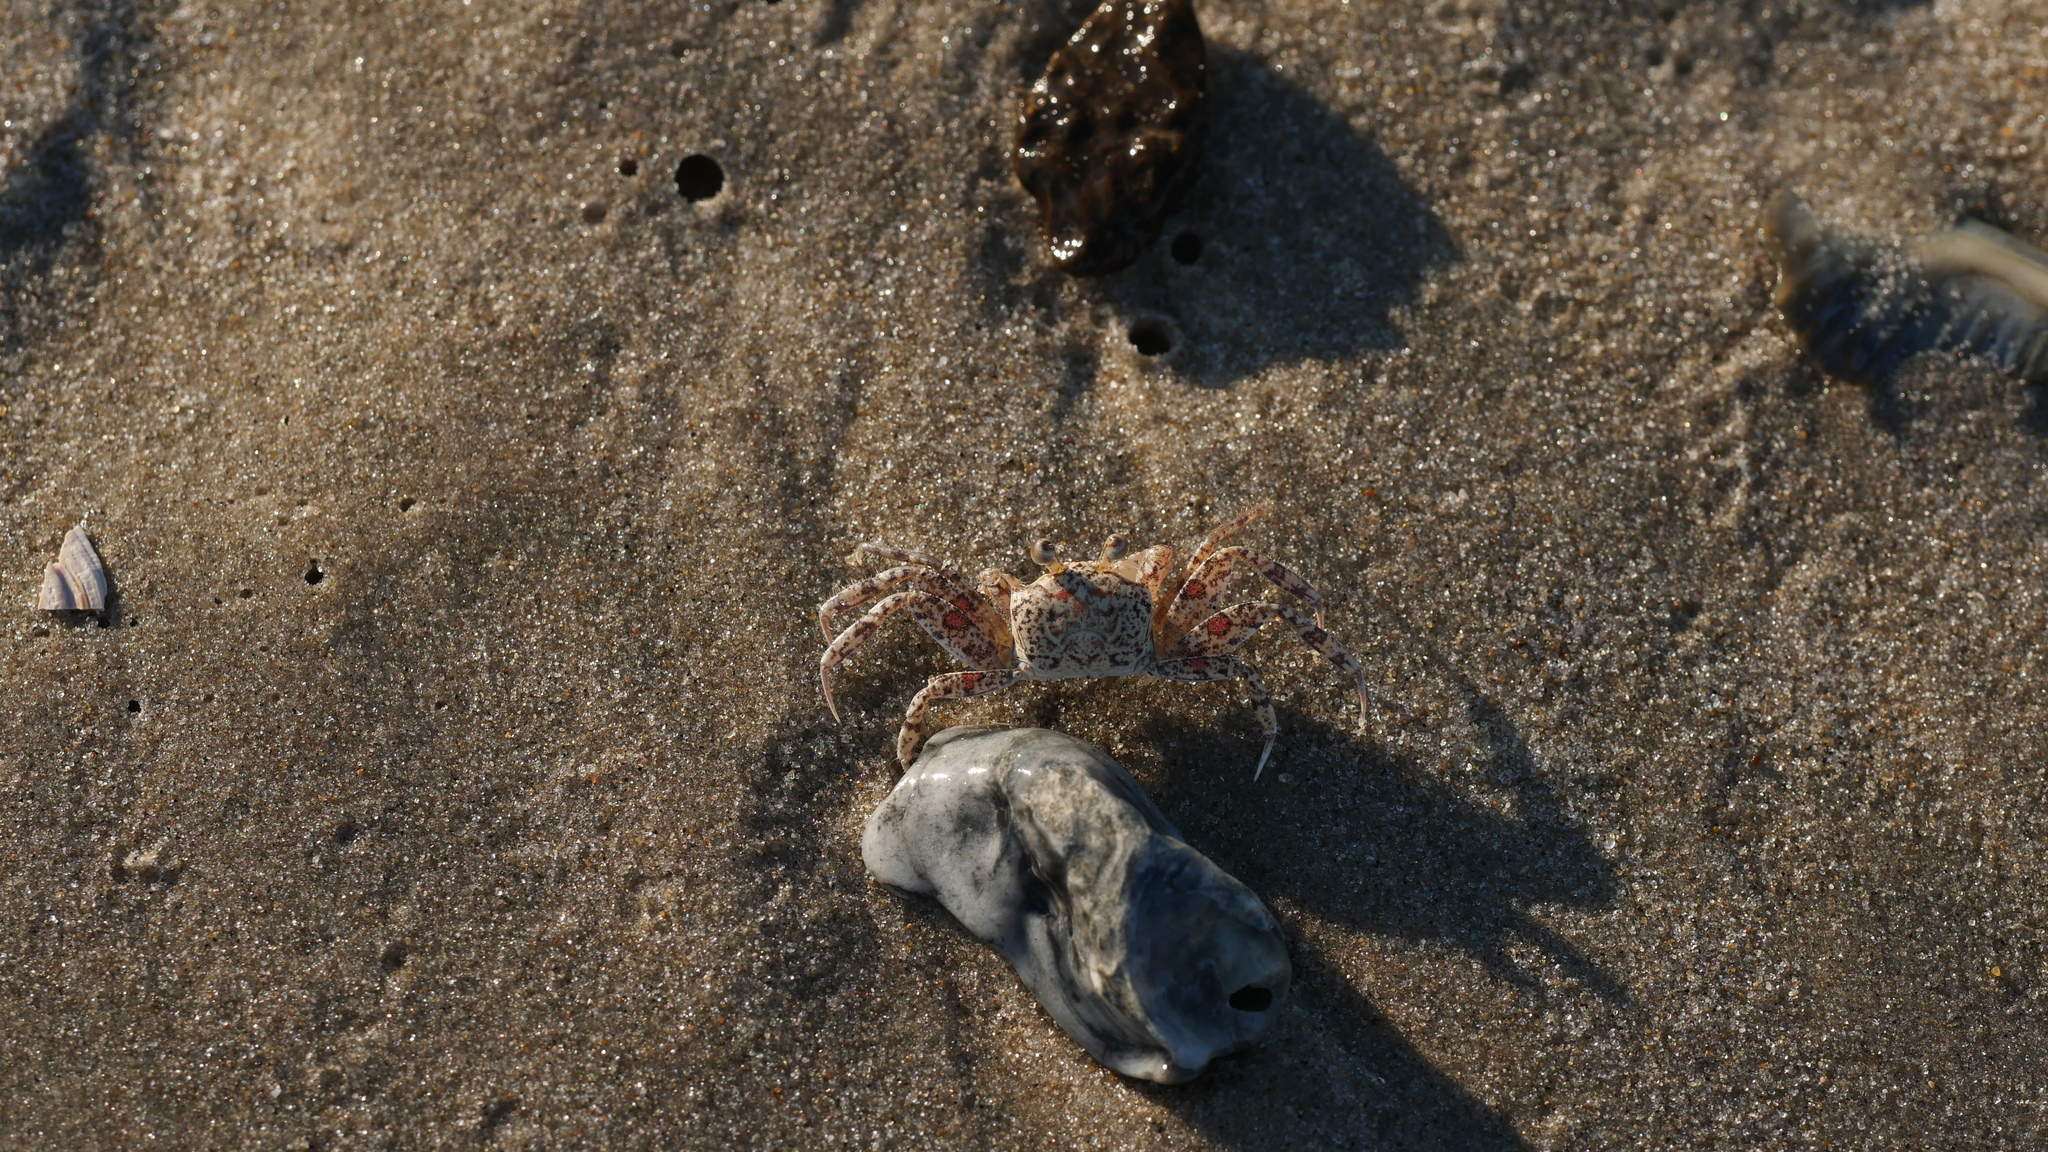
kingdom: Animalia
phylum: Arthropoda
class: Malacostraca
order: Decapoda
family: Ocypodidae
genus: Ocypode
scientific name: Ocypode quadrata
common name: Ghost crab
